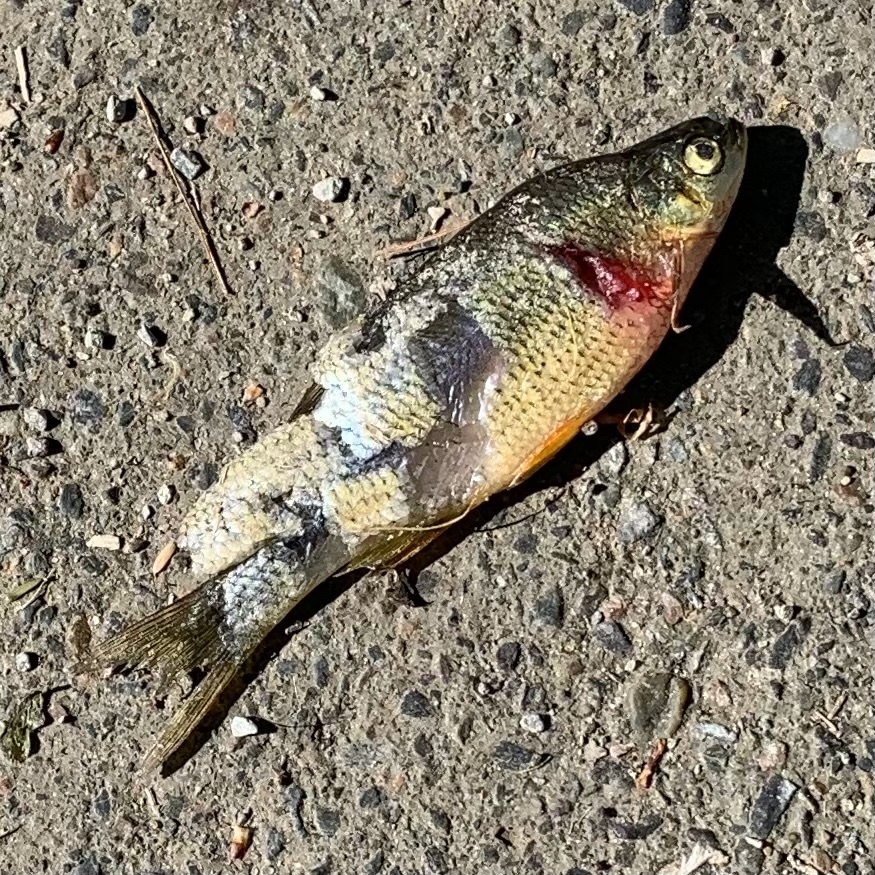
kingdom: Animalia
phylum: Chordata
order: Cypriniformes
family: Cyprinidae
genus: Notemigonus
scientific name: Notemigonus crysoleucas
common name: Golden shiner
